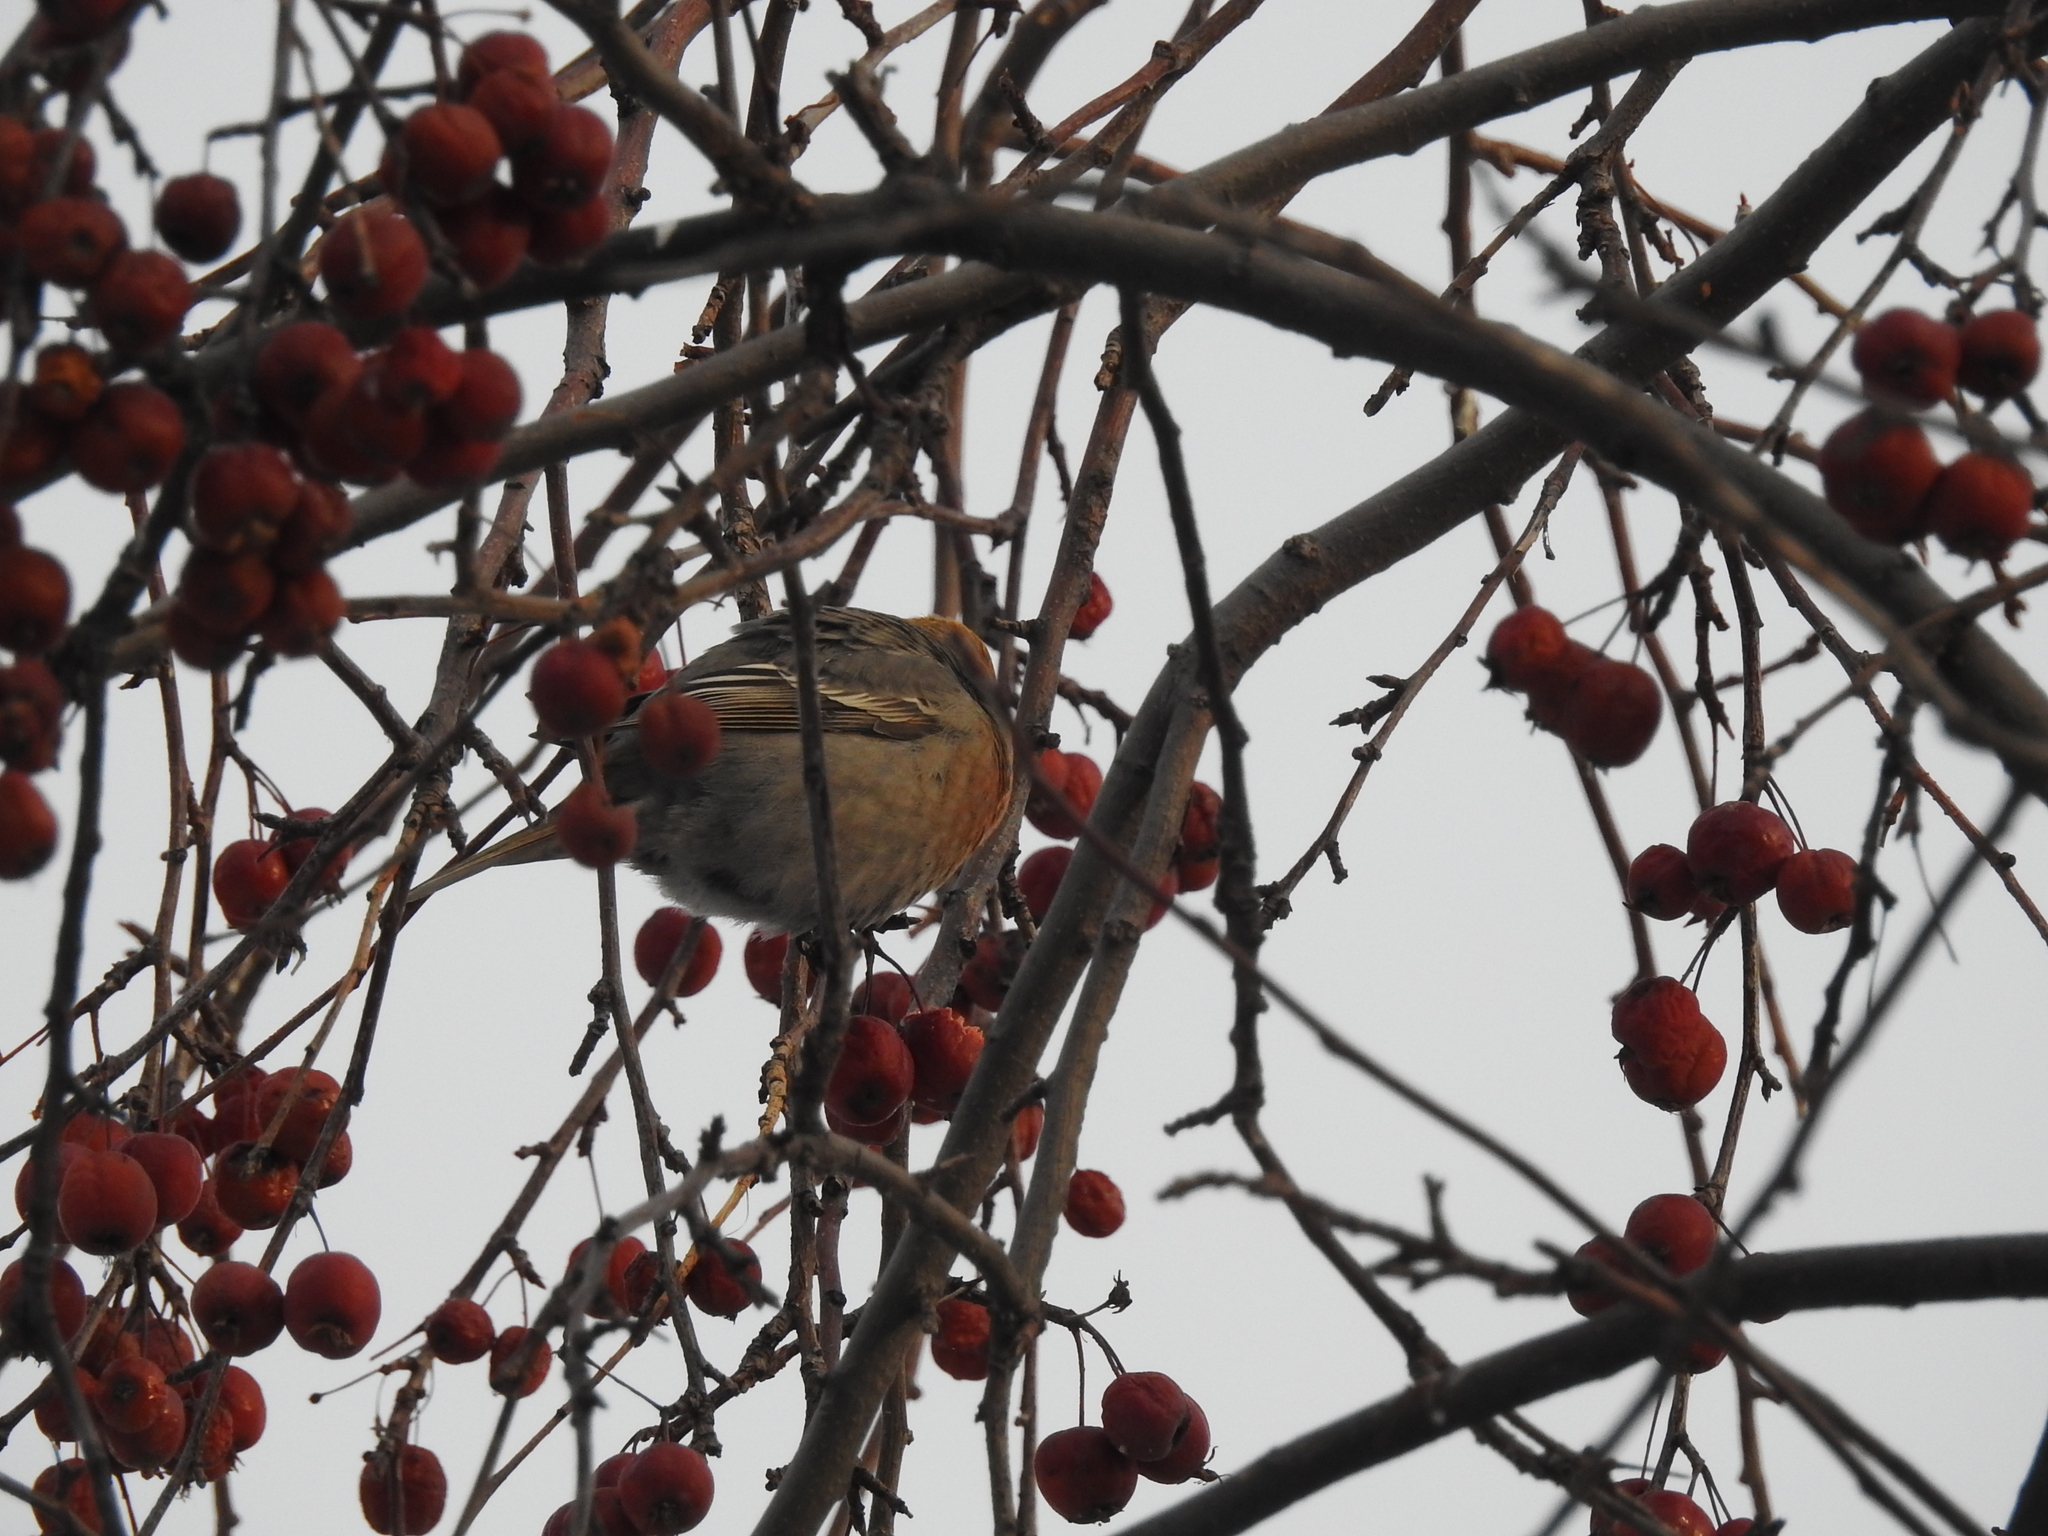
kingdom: Animalia
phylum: Chordata
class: Aves
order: Passeriformes
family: Fringillidae
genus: Pinicola
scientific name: Pinicola enucleator
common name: Pine grosbeak
